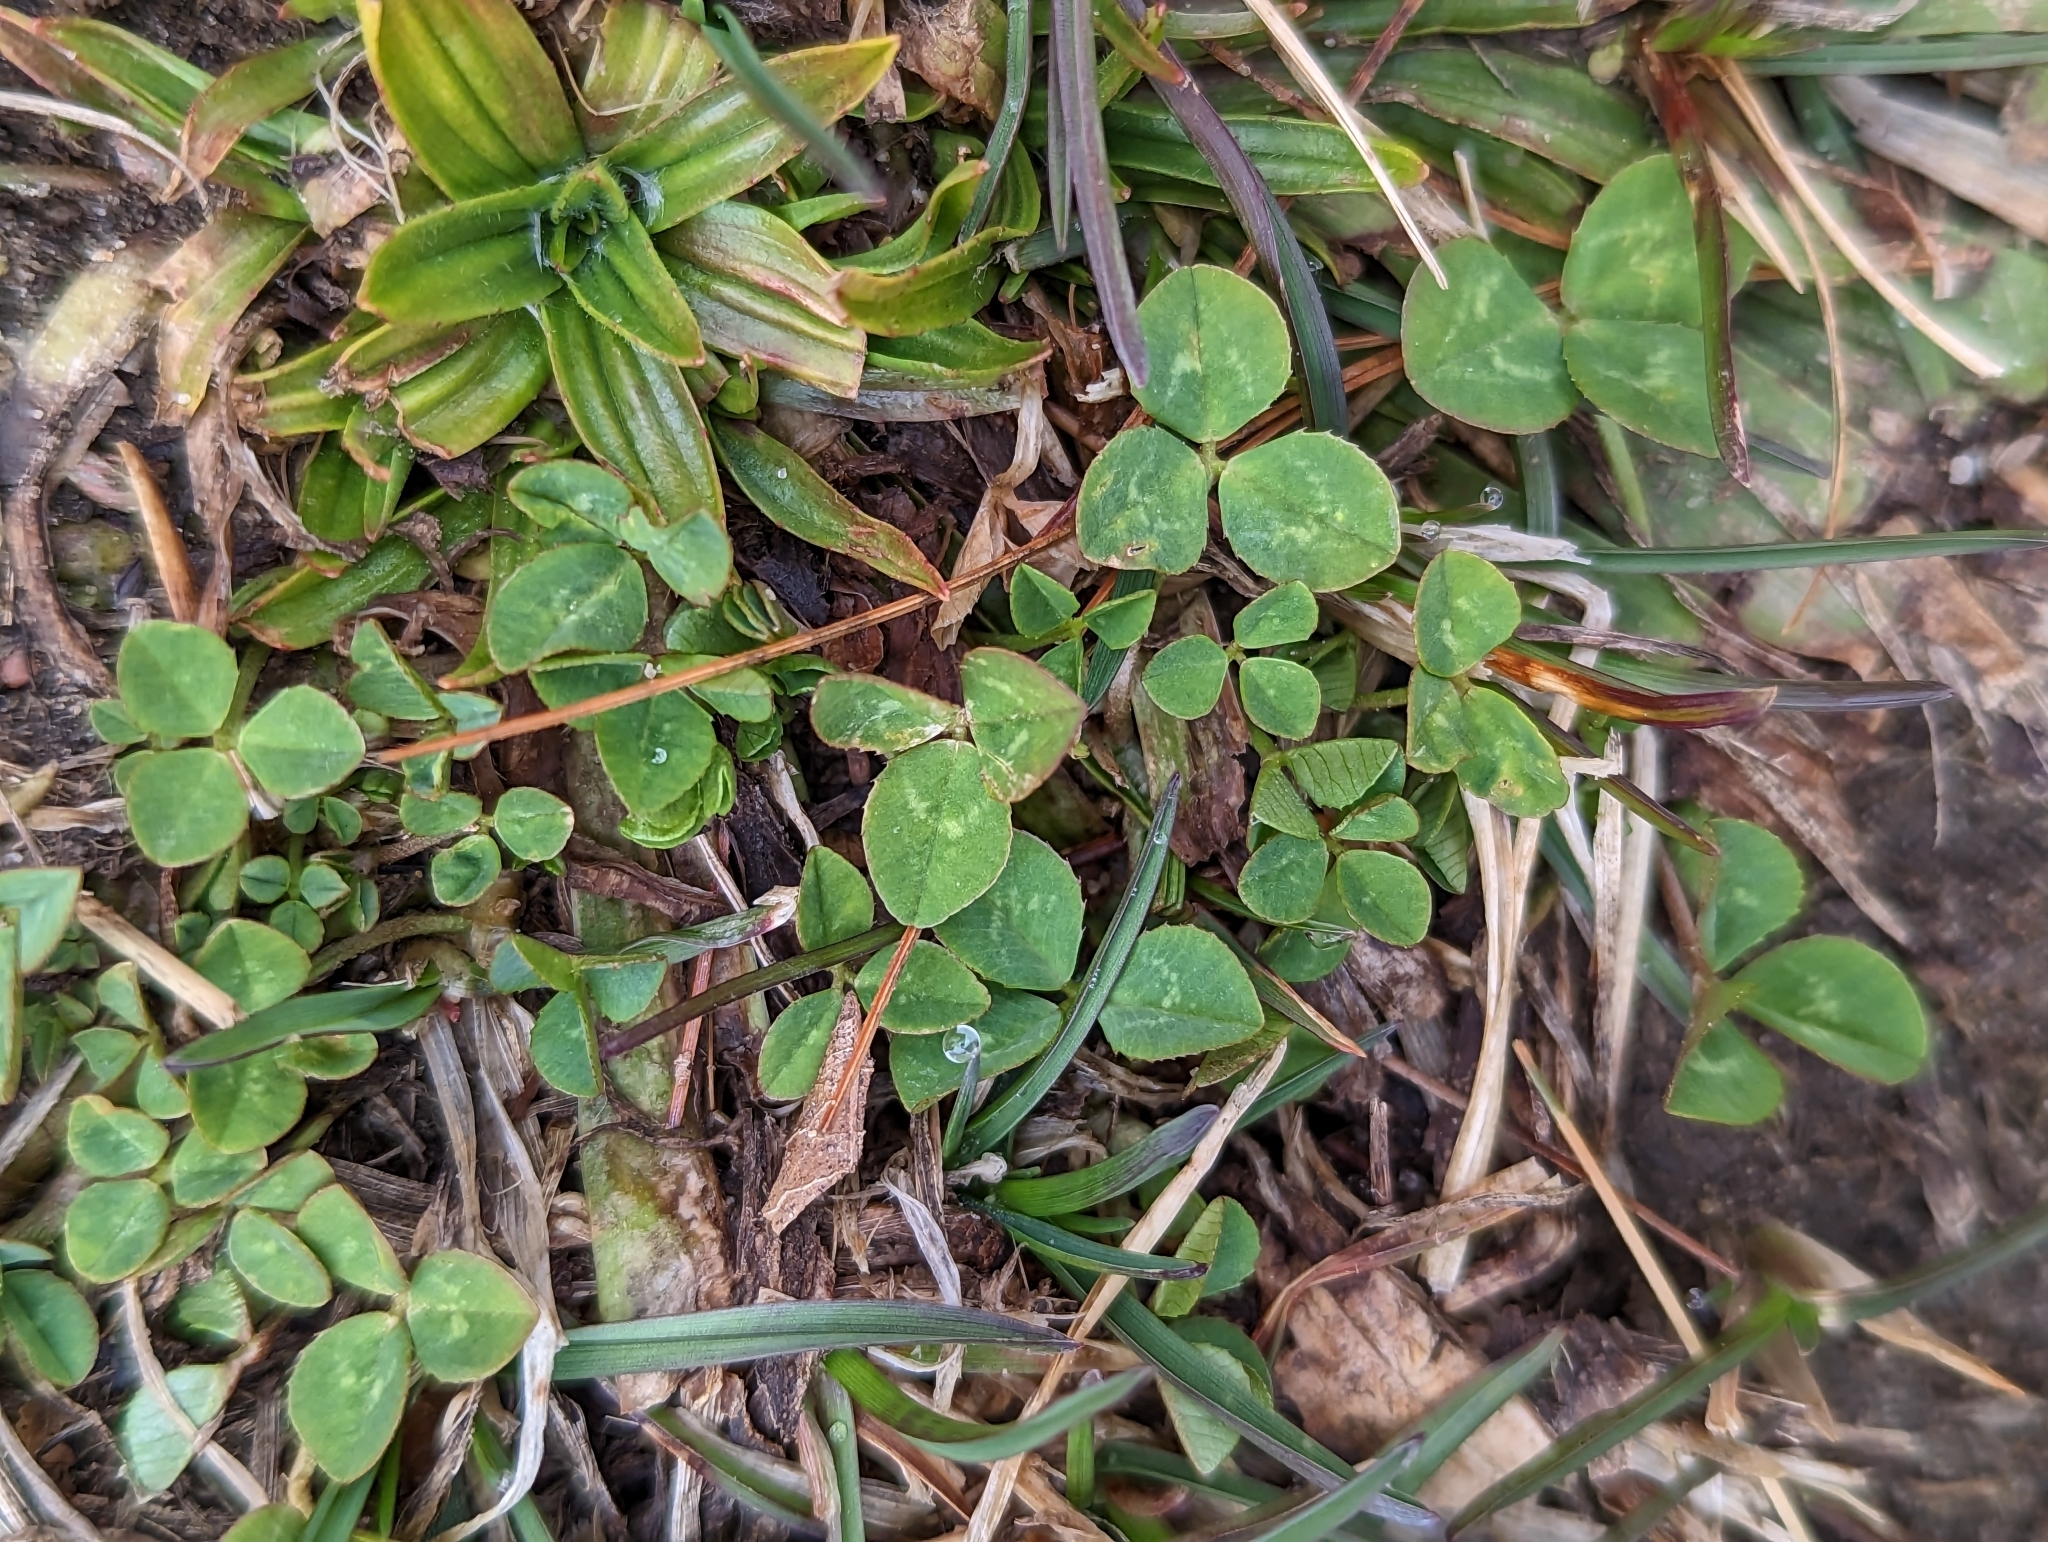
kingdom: Plantae
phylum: Tracheophyta
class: Magnoliopsida
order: Fabales
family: Fabaceae
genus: Trifolium
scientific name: Trifolium repens
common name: White clover
